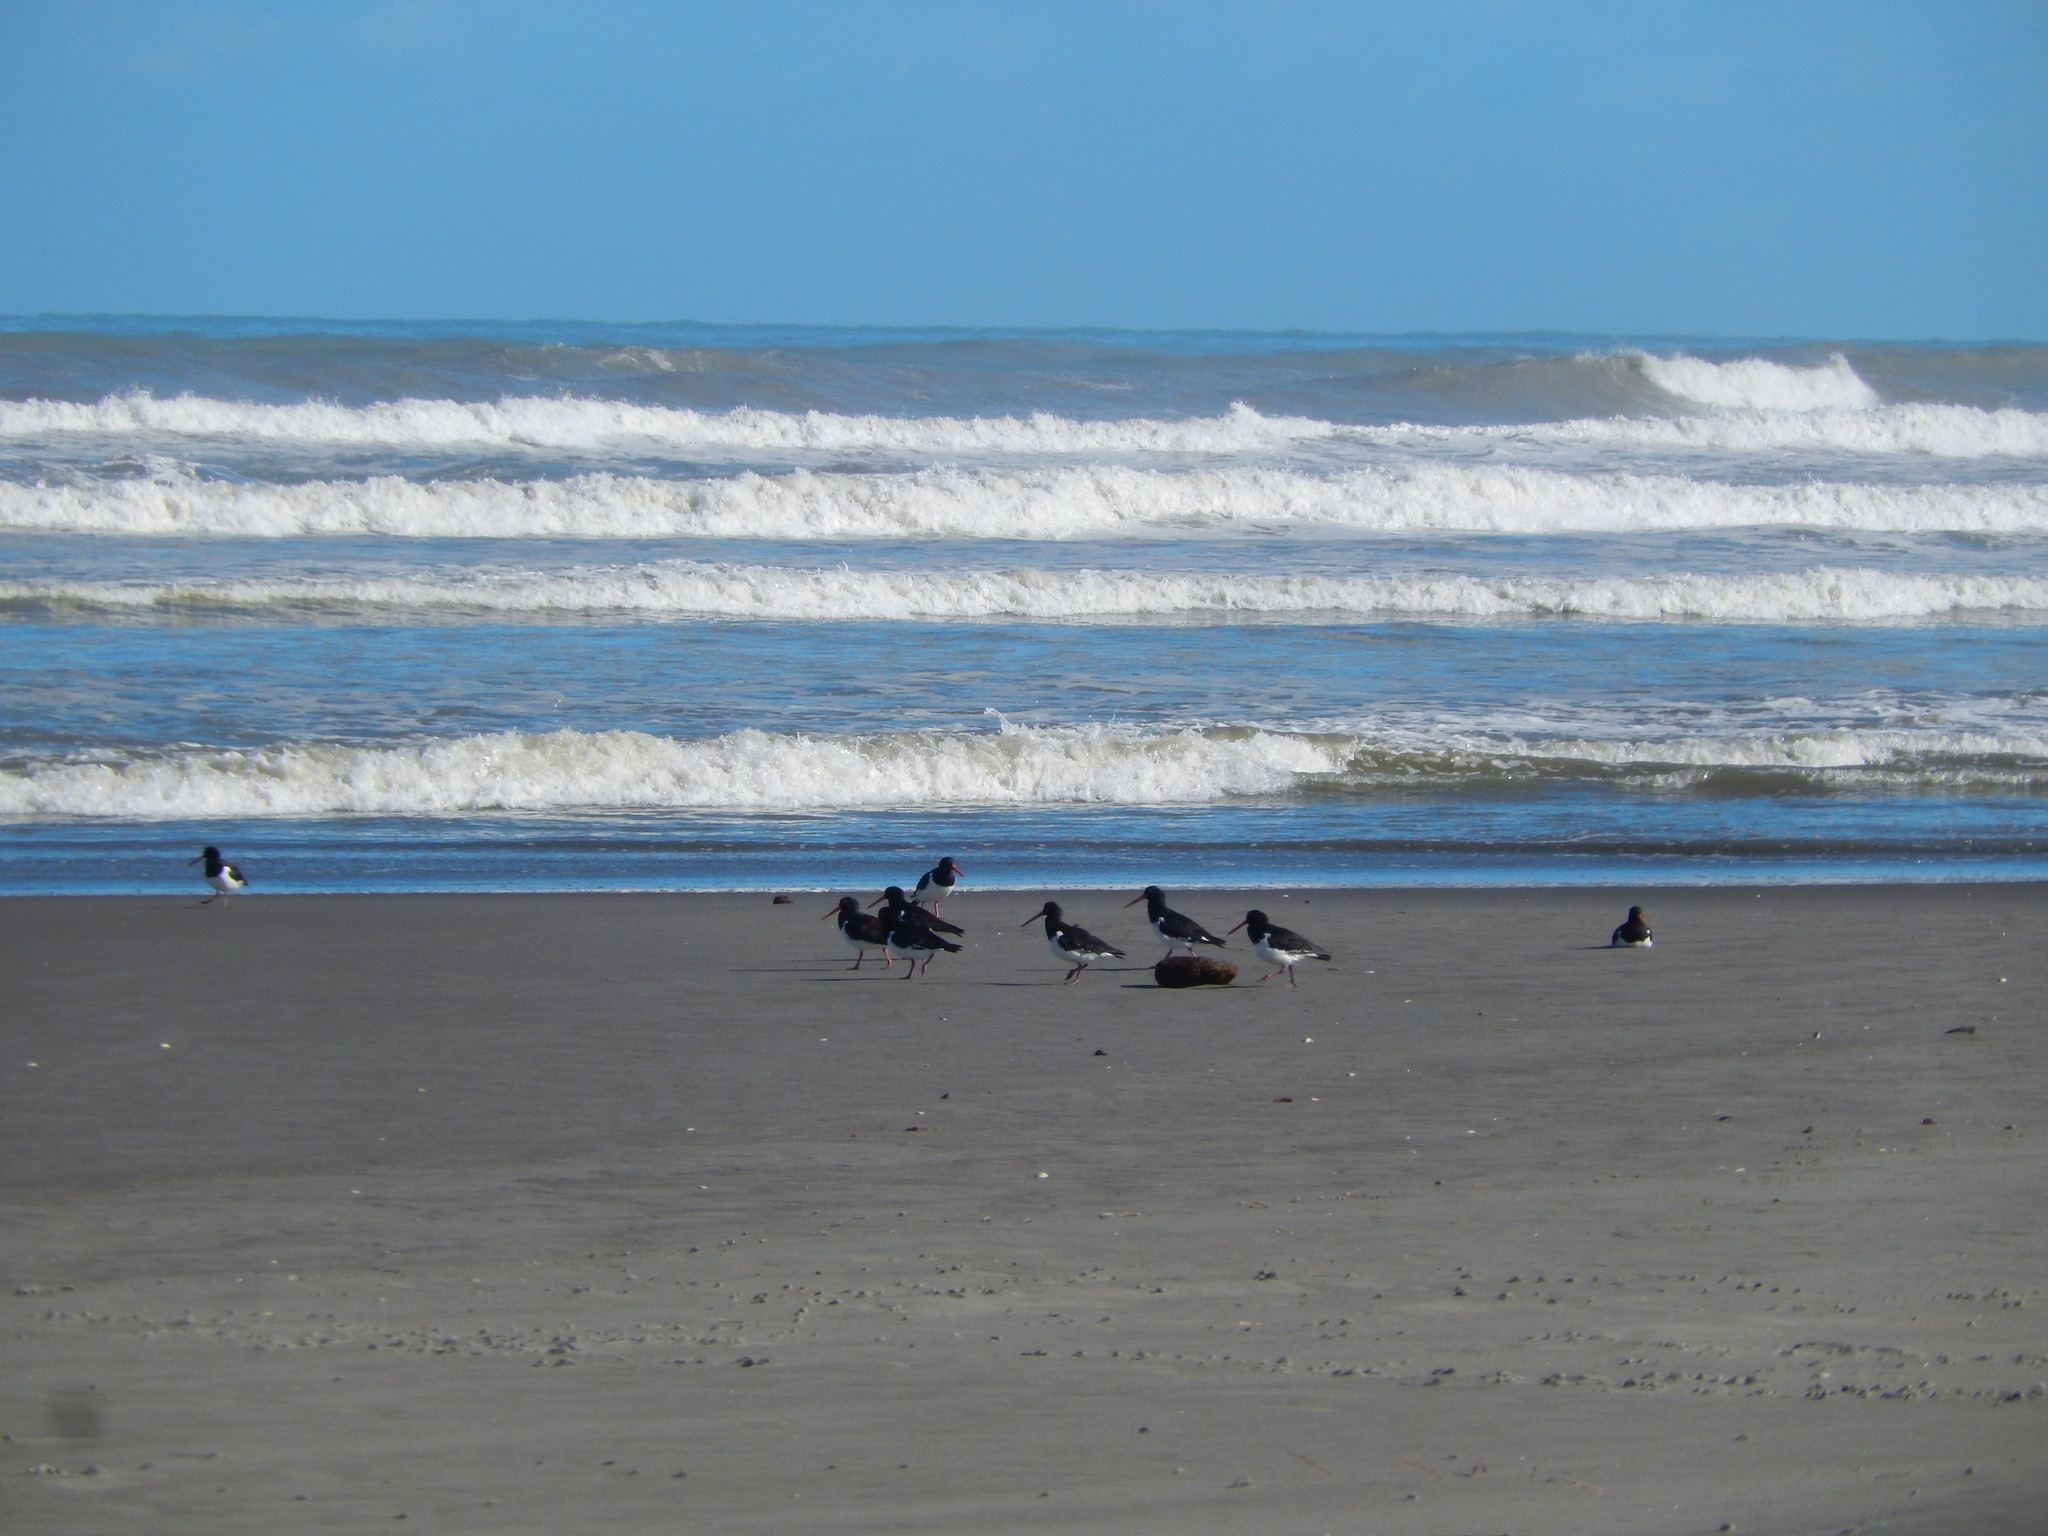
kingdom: Animalia
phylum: Chordata
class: Aves
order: Charadriiformes
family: Haematopodidae
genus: Haematopus
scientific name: Haematopus finschi
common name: South island oystercatcher
